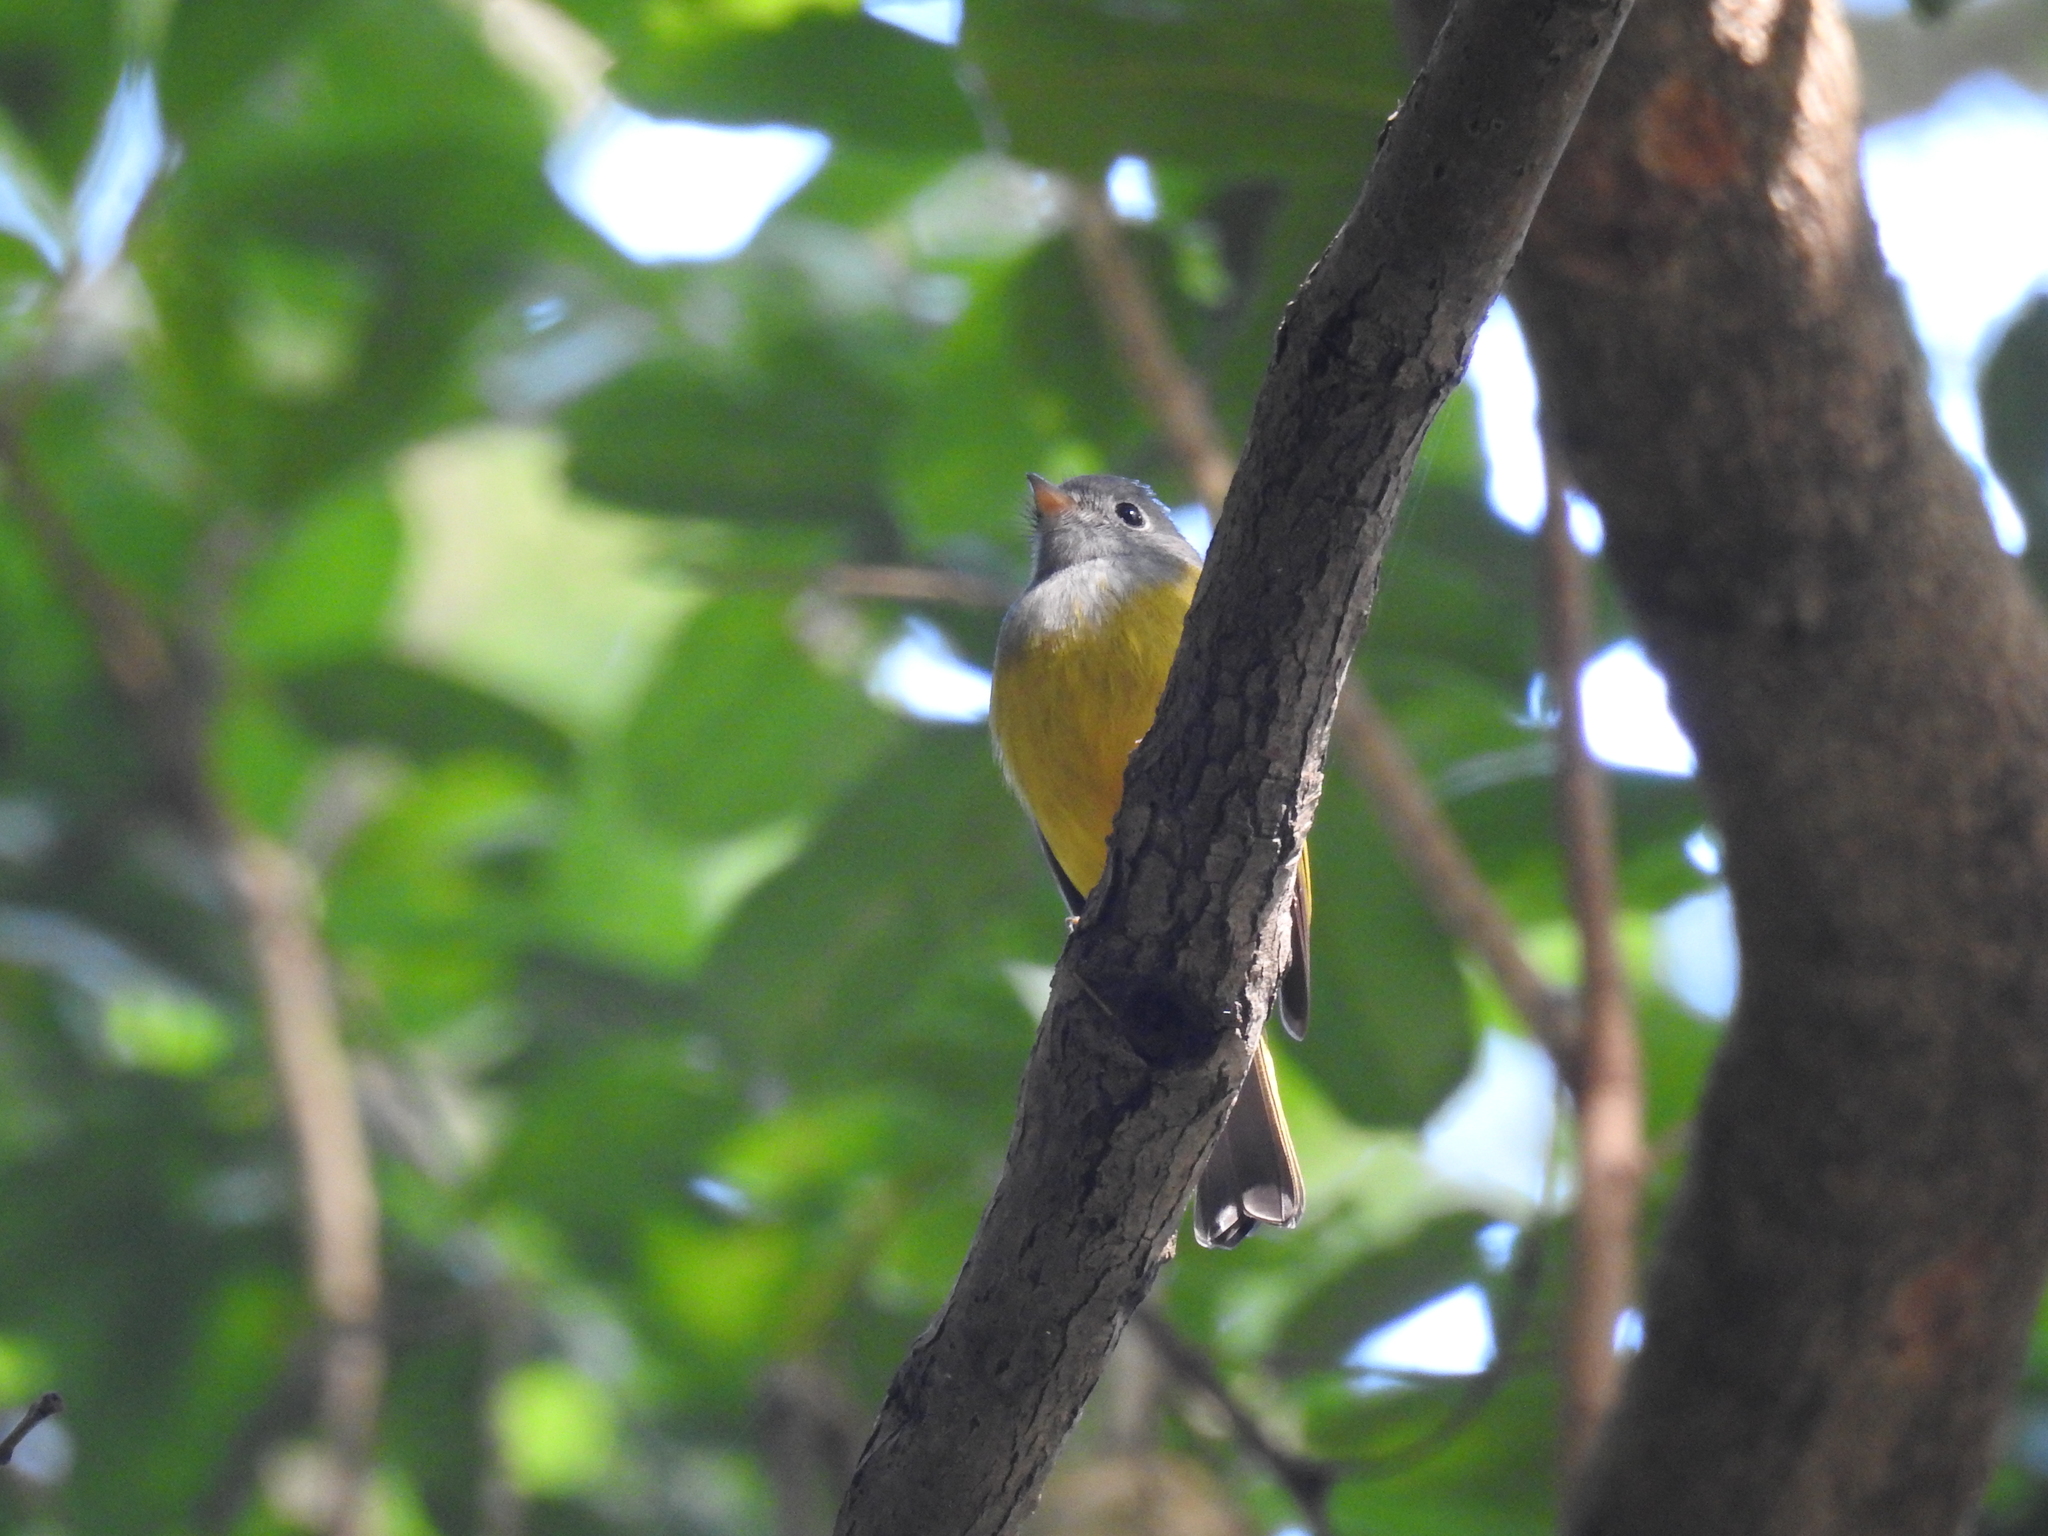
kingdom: Animalia
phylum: Chordata
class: Aves
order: Passeriformes
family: Stenostiridae
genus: Culicicapa
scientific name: Culicicapa ceylonensis
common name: Grey-headed canary-flycatcher
